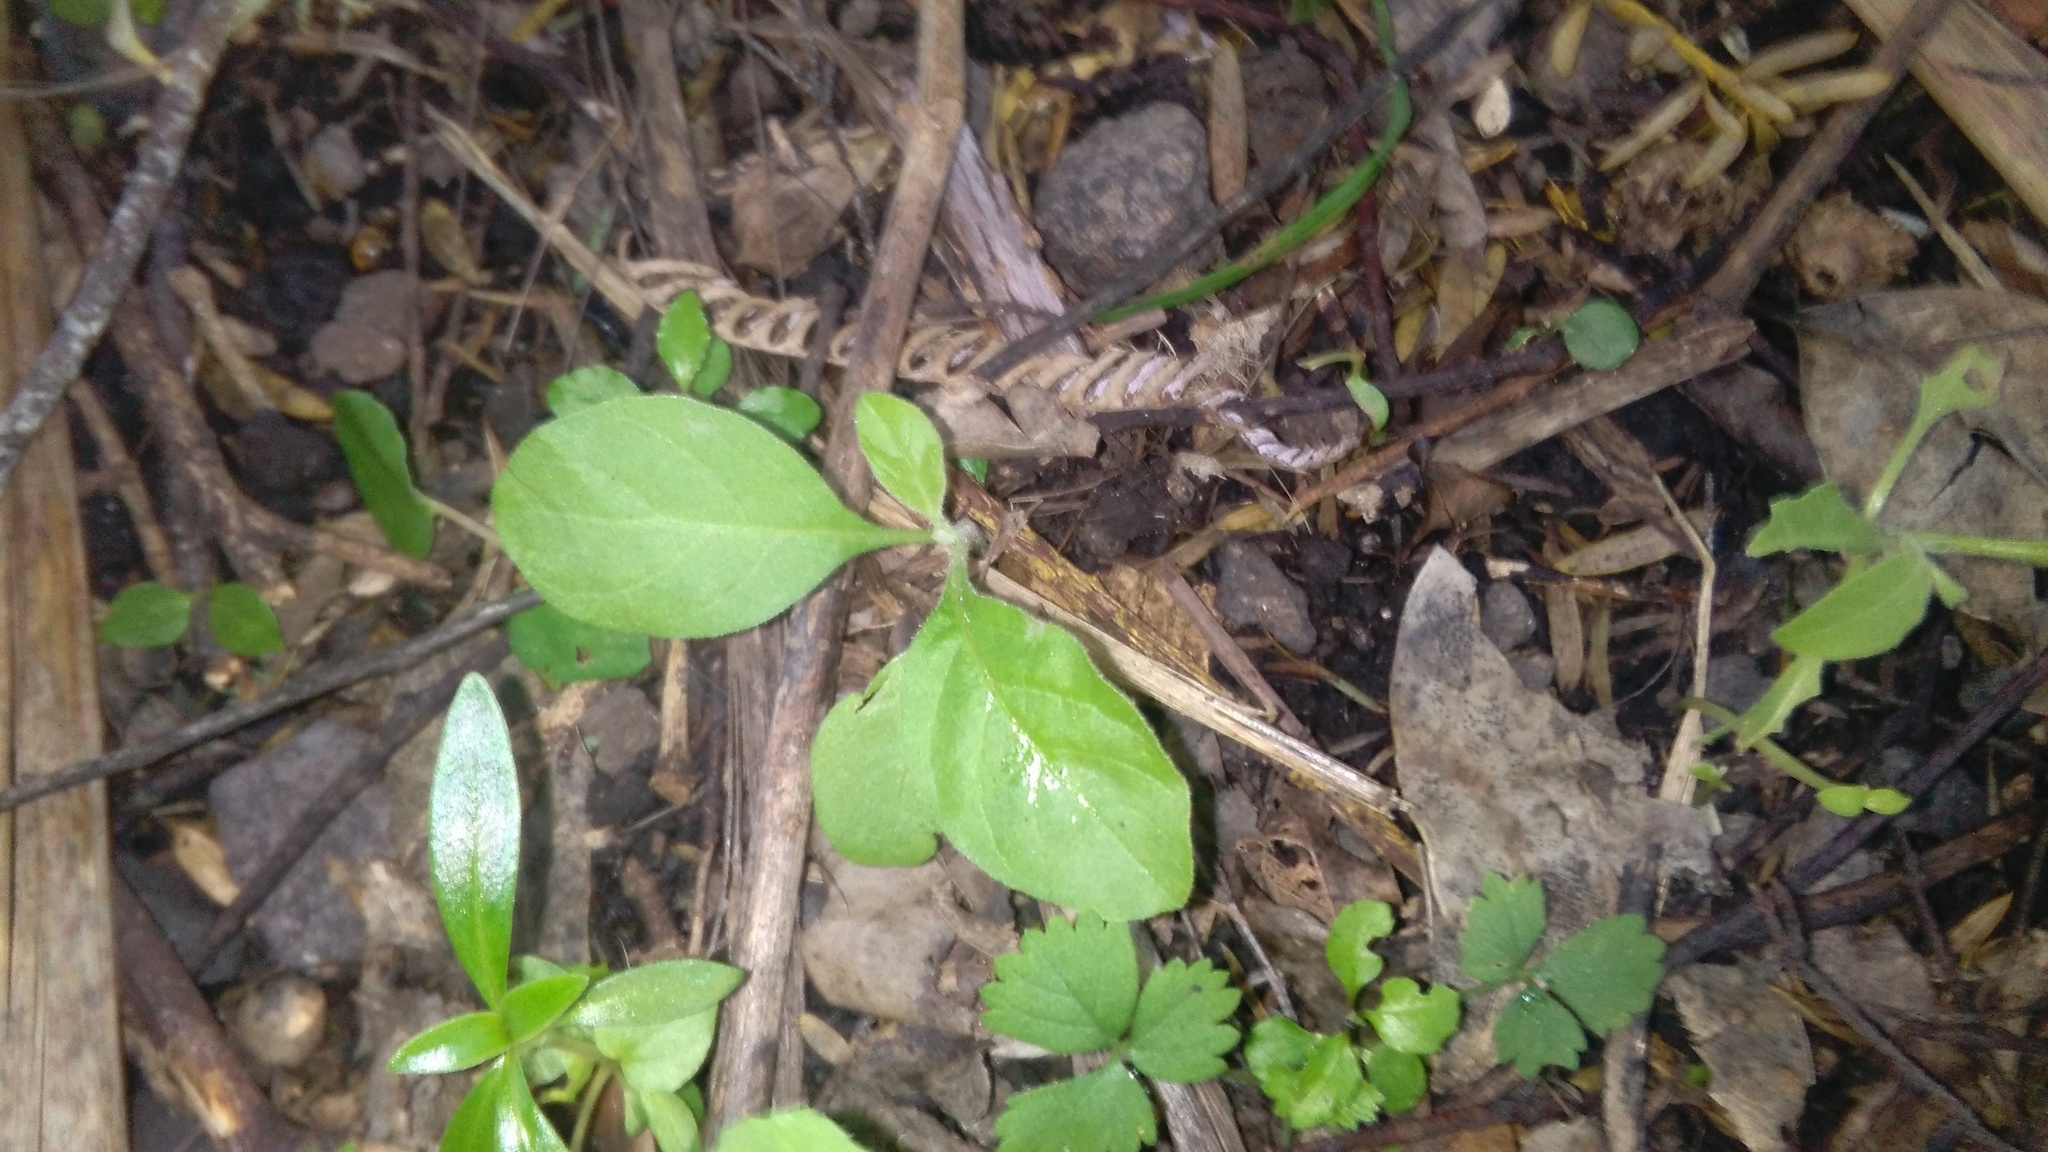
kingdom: Plantae
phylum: Tracheophyta
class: Magnoliopsida
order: Solanales
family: Solanaceae
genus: Solanum
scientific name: Solanum mauritianum
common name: Earleaf nightshade
